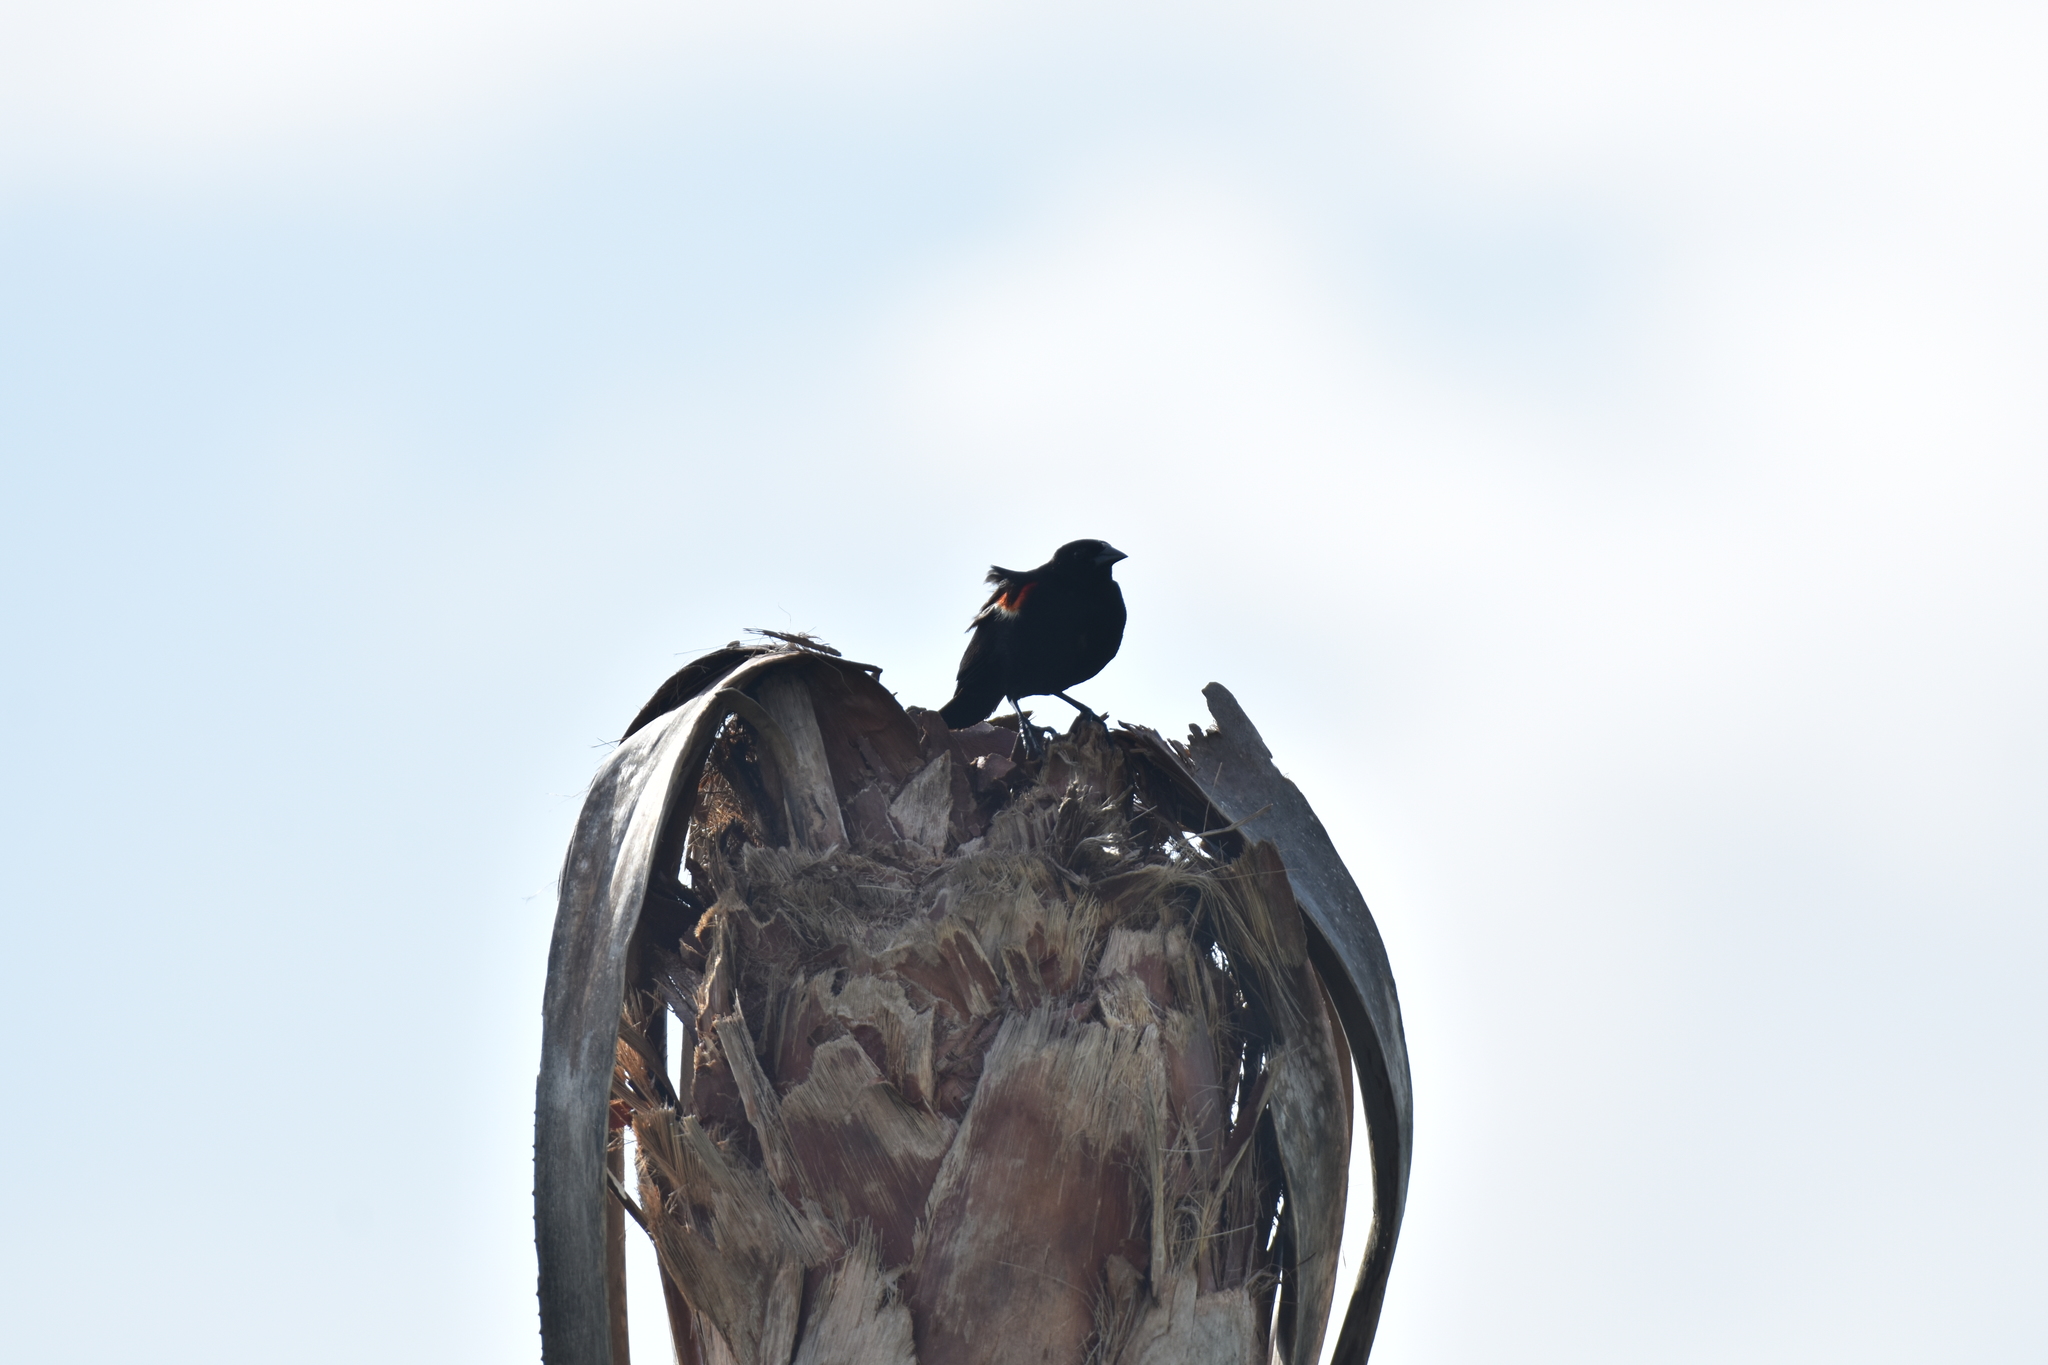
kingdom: Animalia
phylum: Chordata
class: Aves
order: Passeriformes
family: Icteridae
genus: Agelaius
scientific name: Agelaius phoeniceus
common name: Red-winged blackbird
